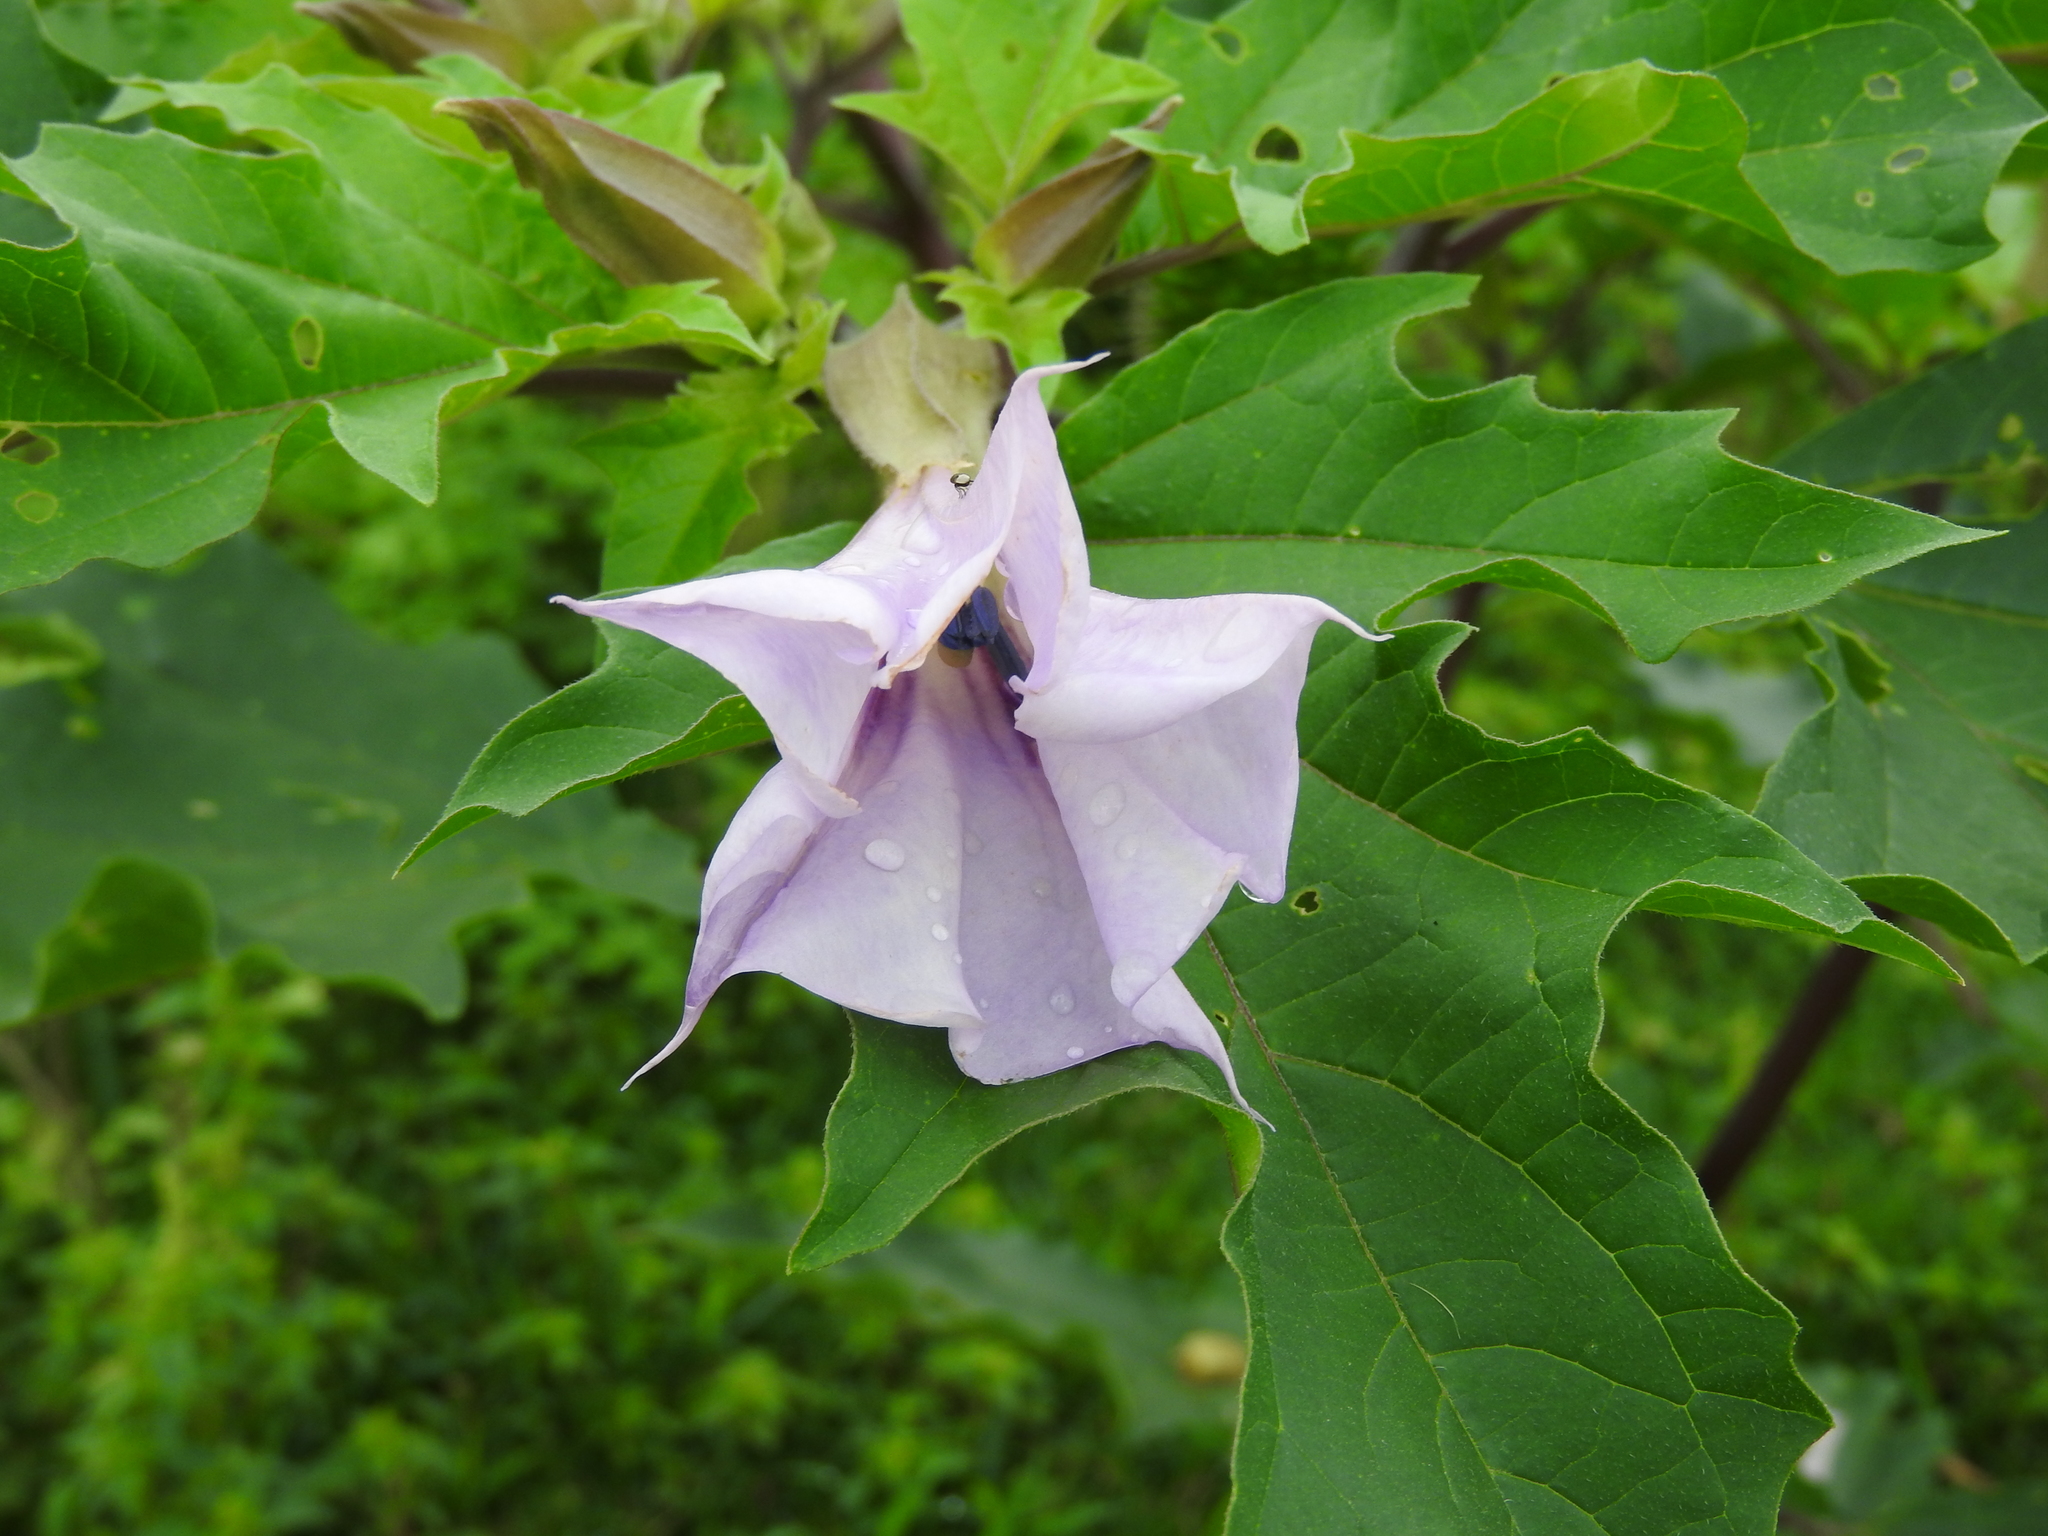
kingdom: Plantae
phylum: Tracheophyta
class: Magnoliopsida
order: Solanales
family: Solanaceae
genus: Datura
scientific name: Datura stramonium
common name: Thorn-apple
